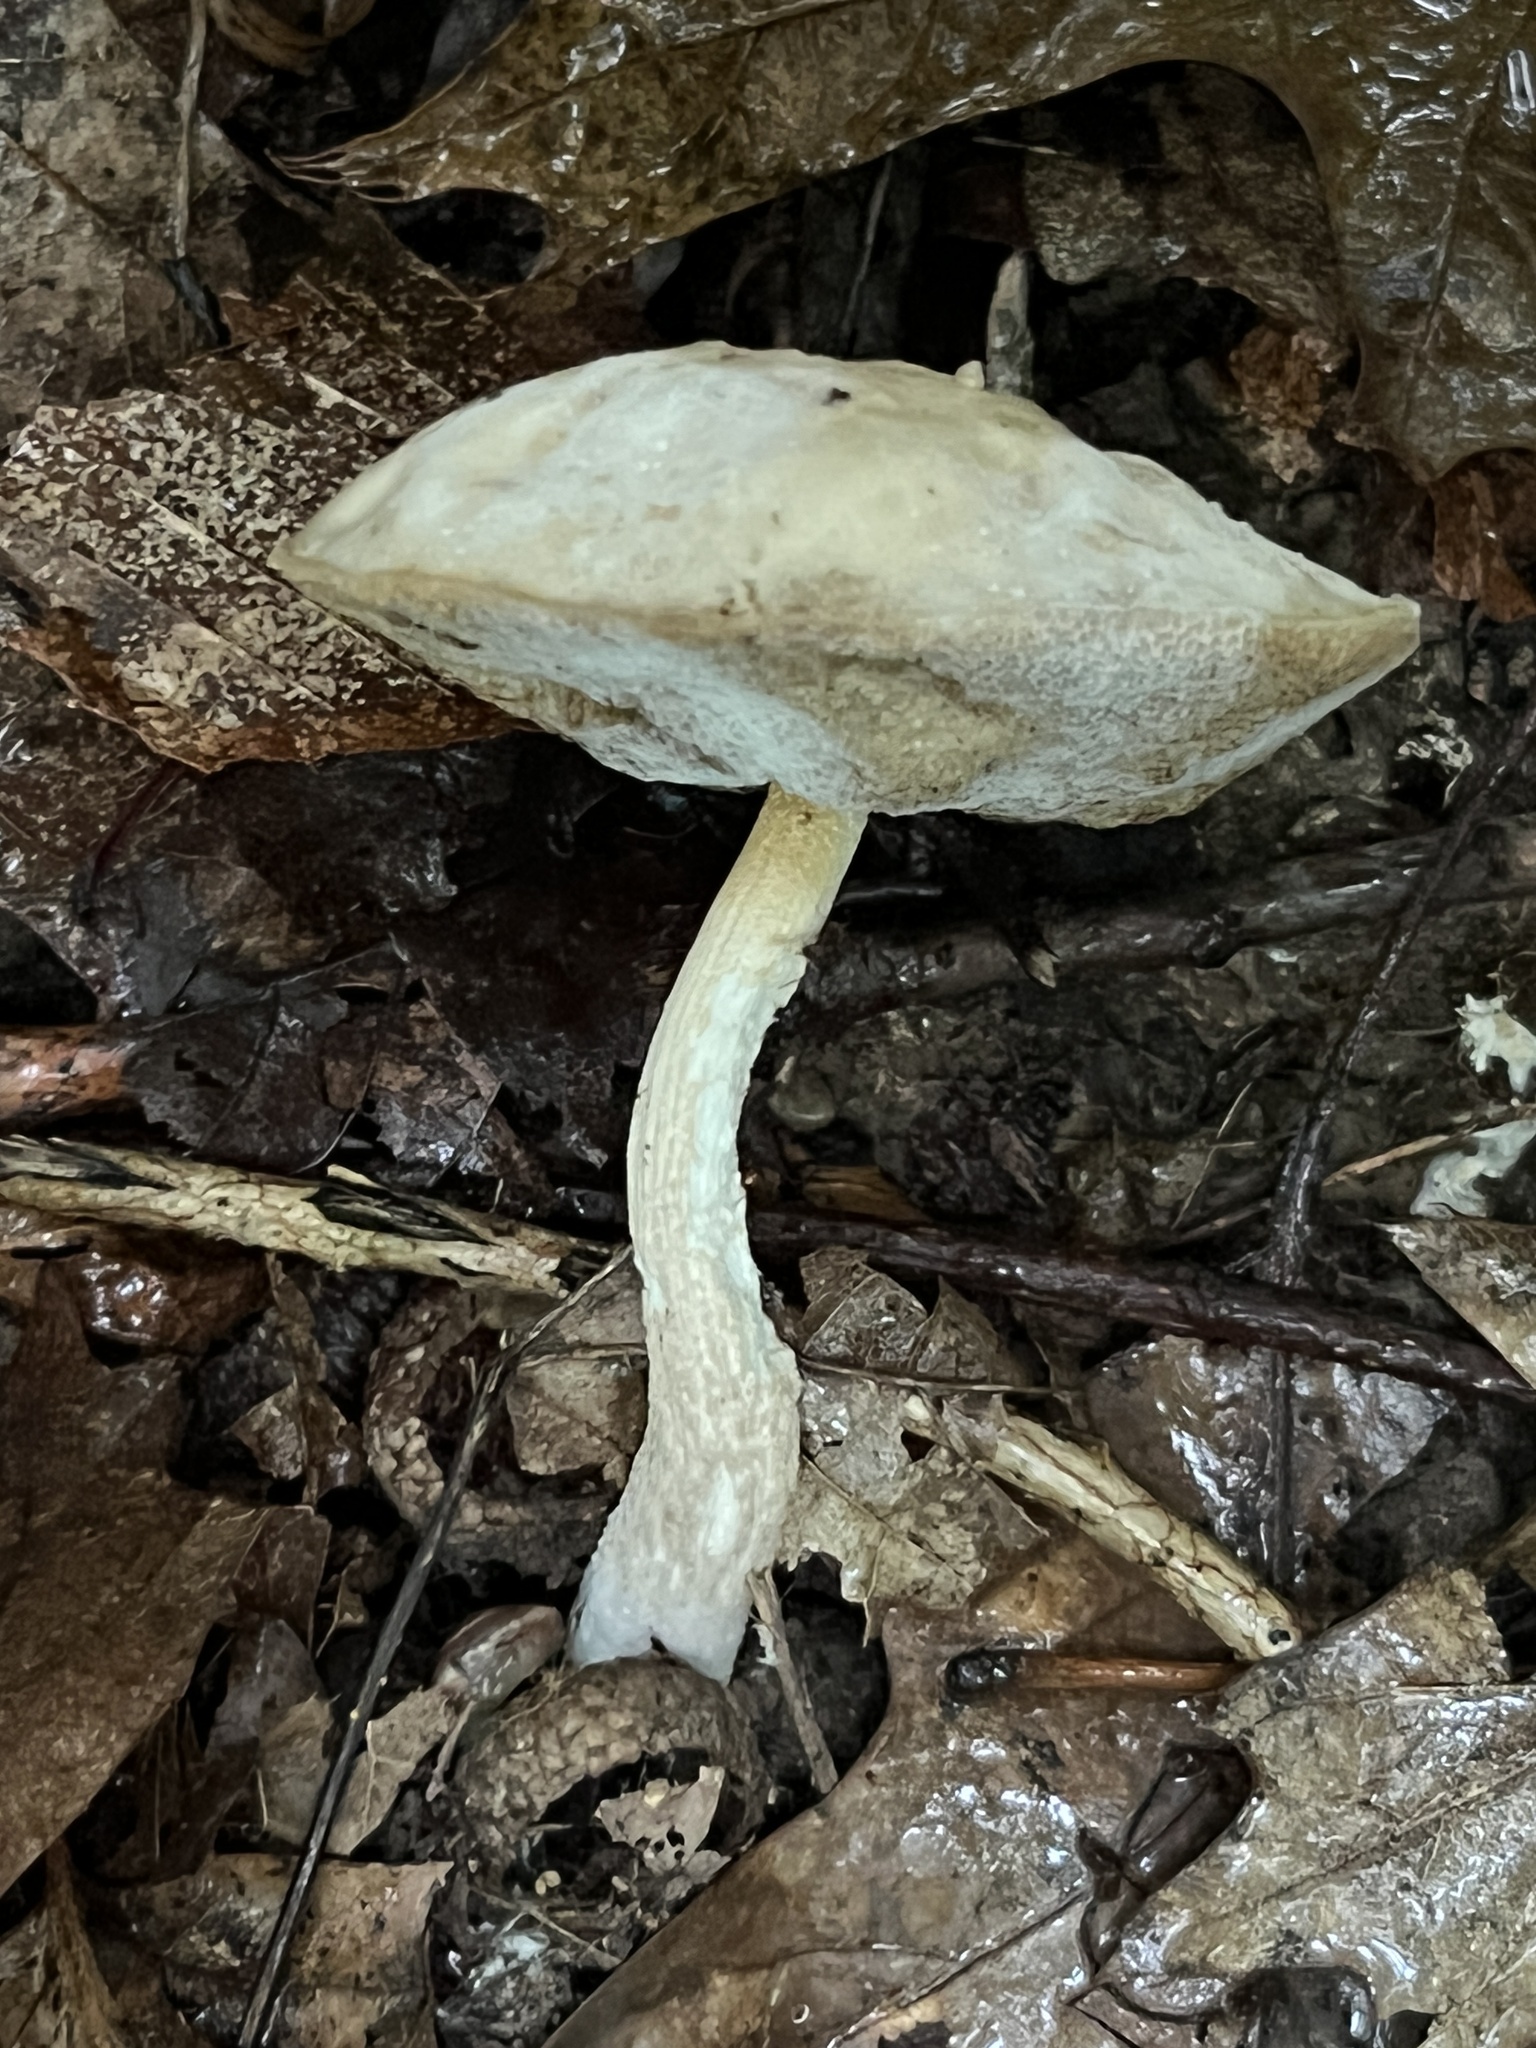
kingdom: Fungi
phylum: Basidiomycota
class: Agaricomycetes
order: Boletales
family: Boletaceae
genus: Leccinellum
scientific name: Leccinellum albellum
